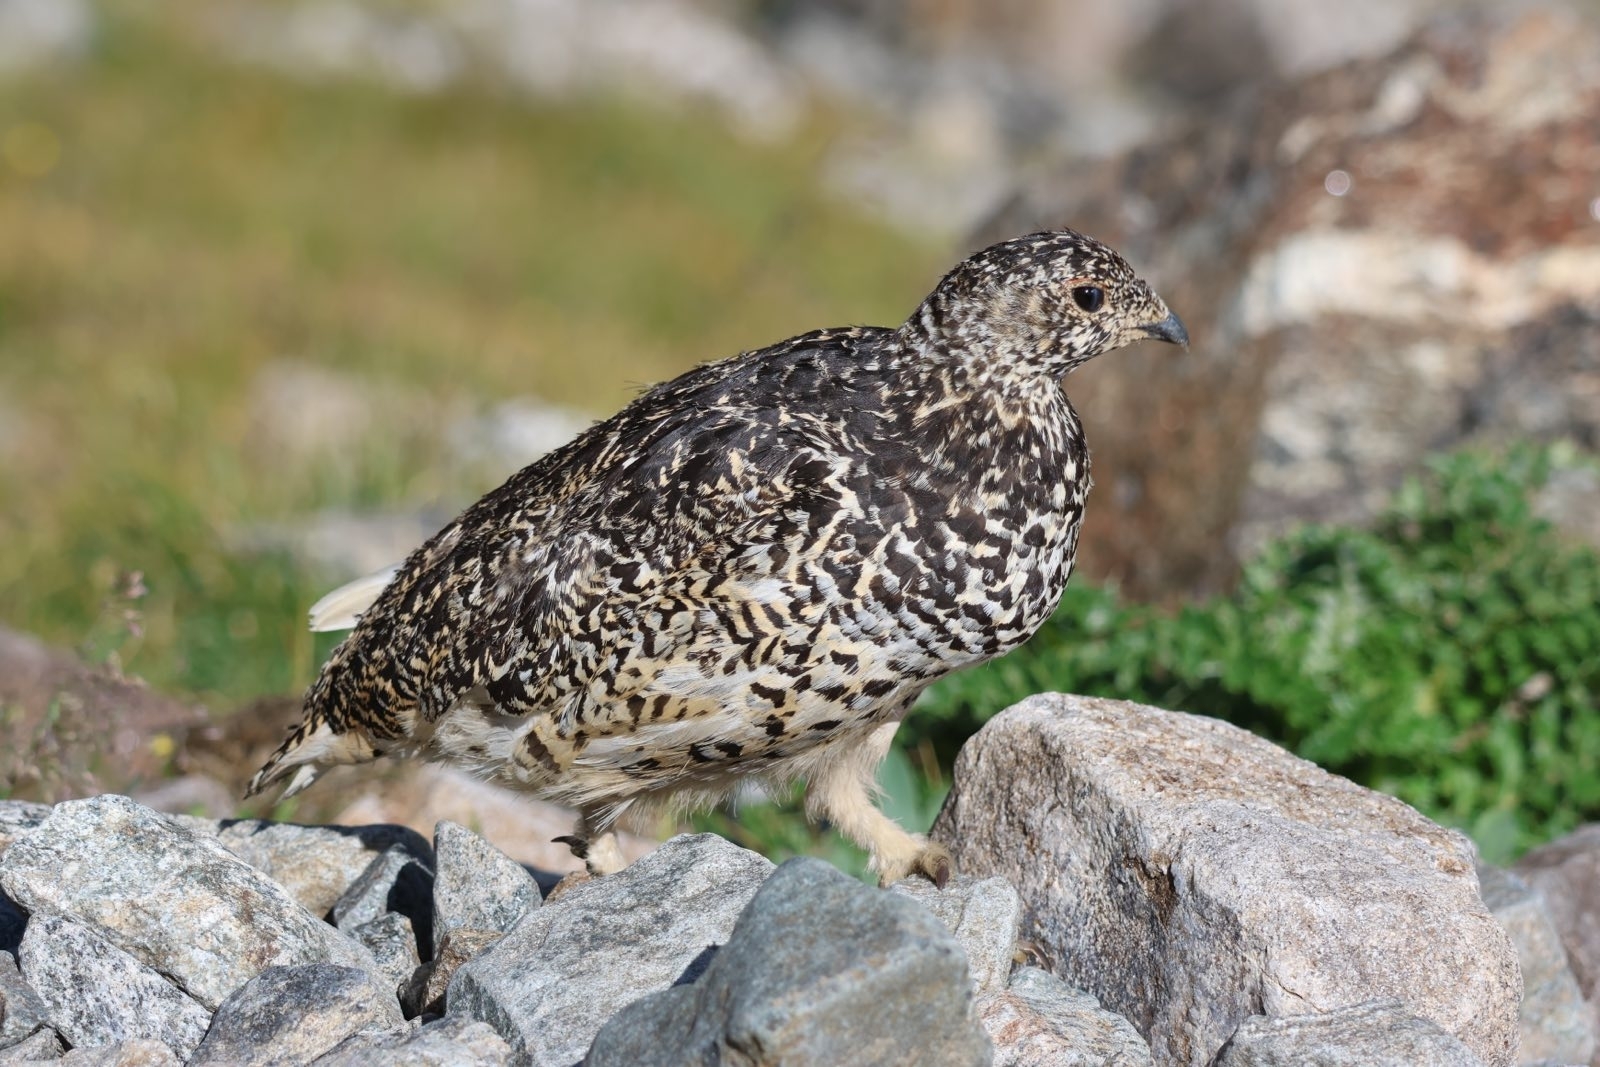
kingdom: Animalia
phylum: Chordata
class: Aves
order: Galliformes
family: Phasianidae
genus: Lagopus
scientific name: Lagopus leucura
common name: White-tailed ptarmigan
